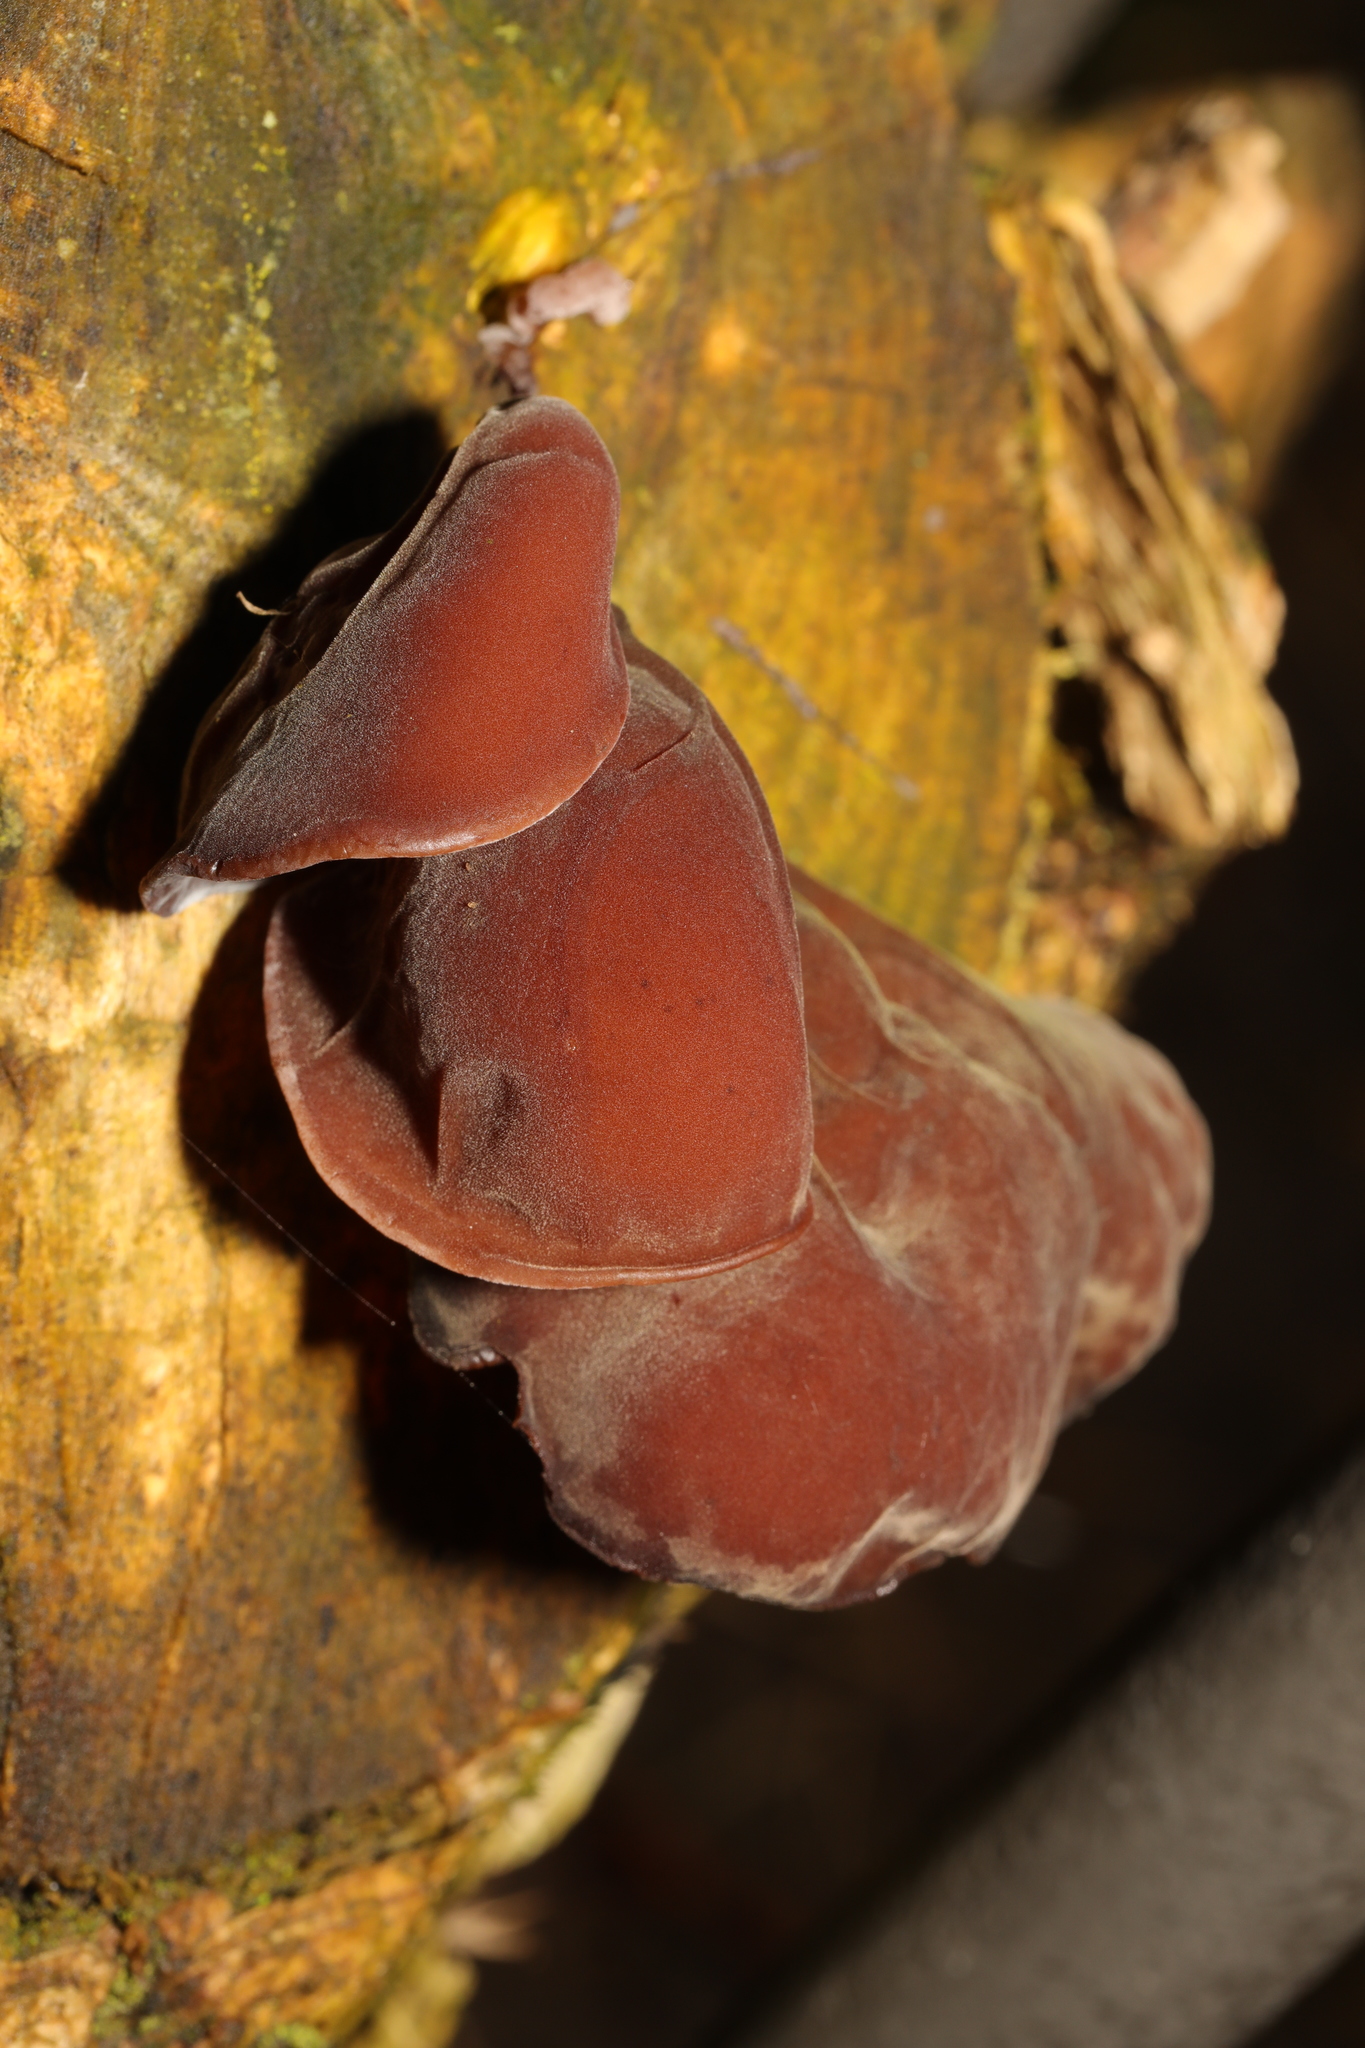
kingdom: Fungi
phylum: Basidiomycota
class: Agaricomycetes
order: Auriculariales
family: Auriculariaceae
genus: Auricularia
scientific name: Auricularia auricula-judae
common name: Jelly ear
